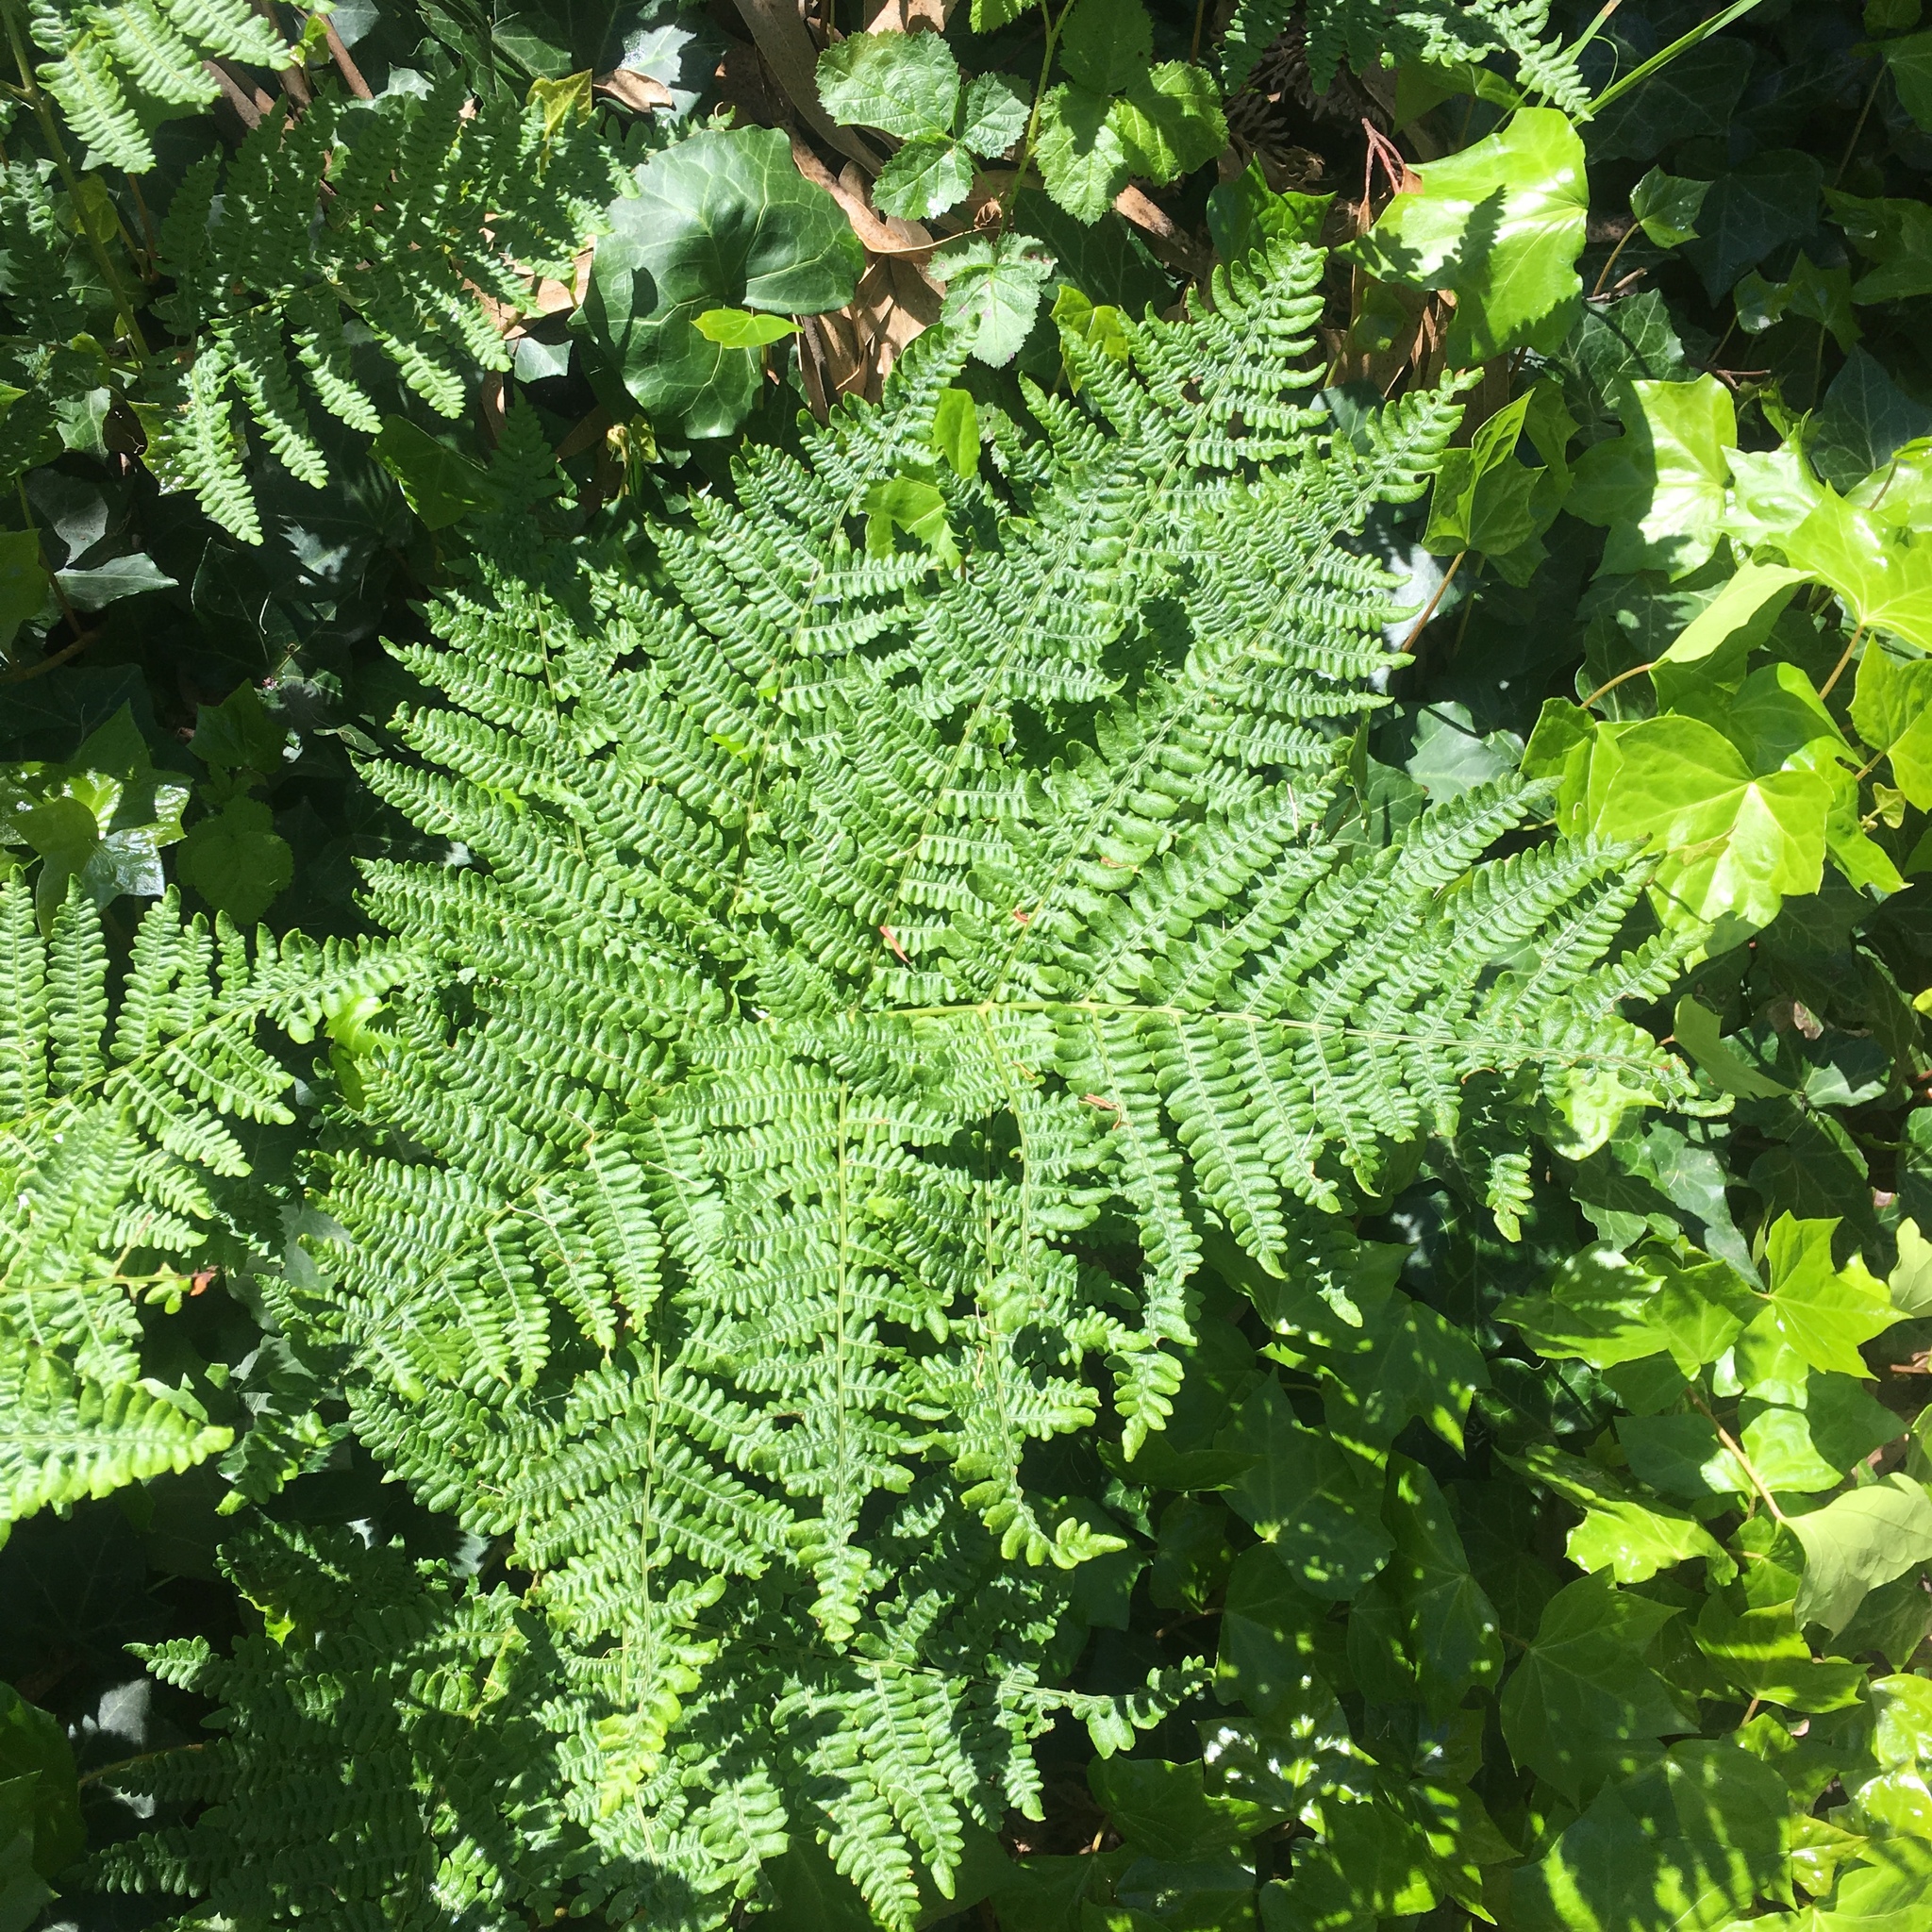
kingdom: Plantae
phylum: Tracheophyta
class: Polypodiopsida
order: Polypodiales
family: Dennstaedtiaceae
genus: Pteridium
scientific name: Pteridium aquilinum
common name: Bracken
